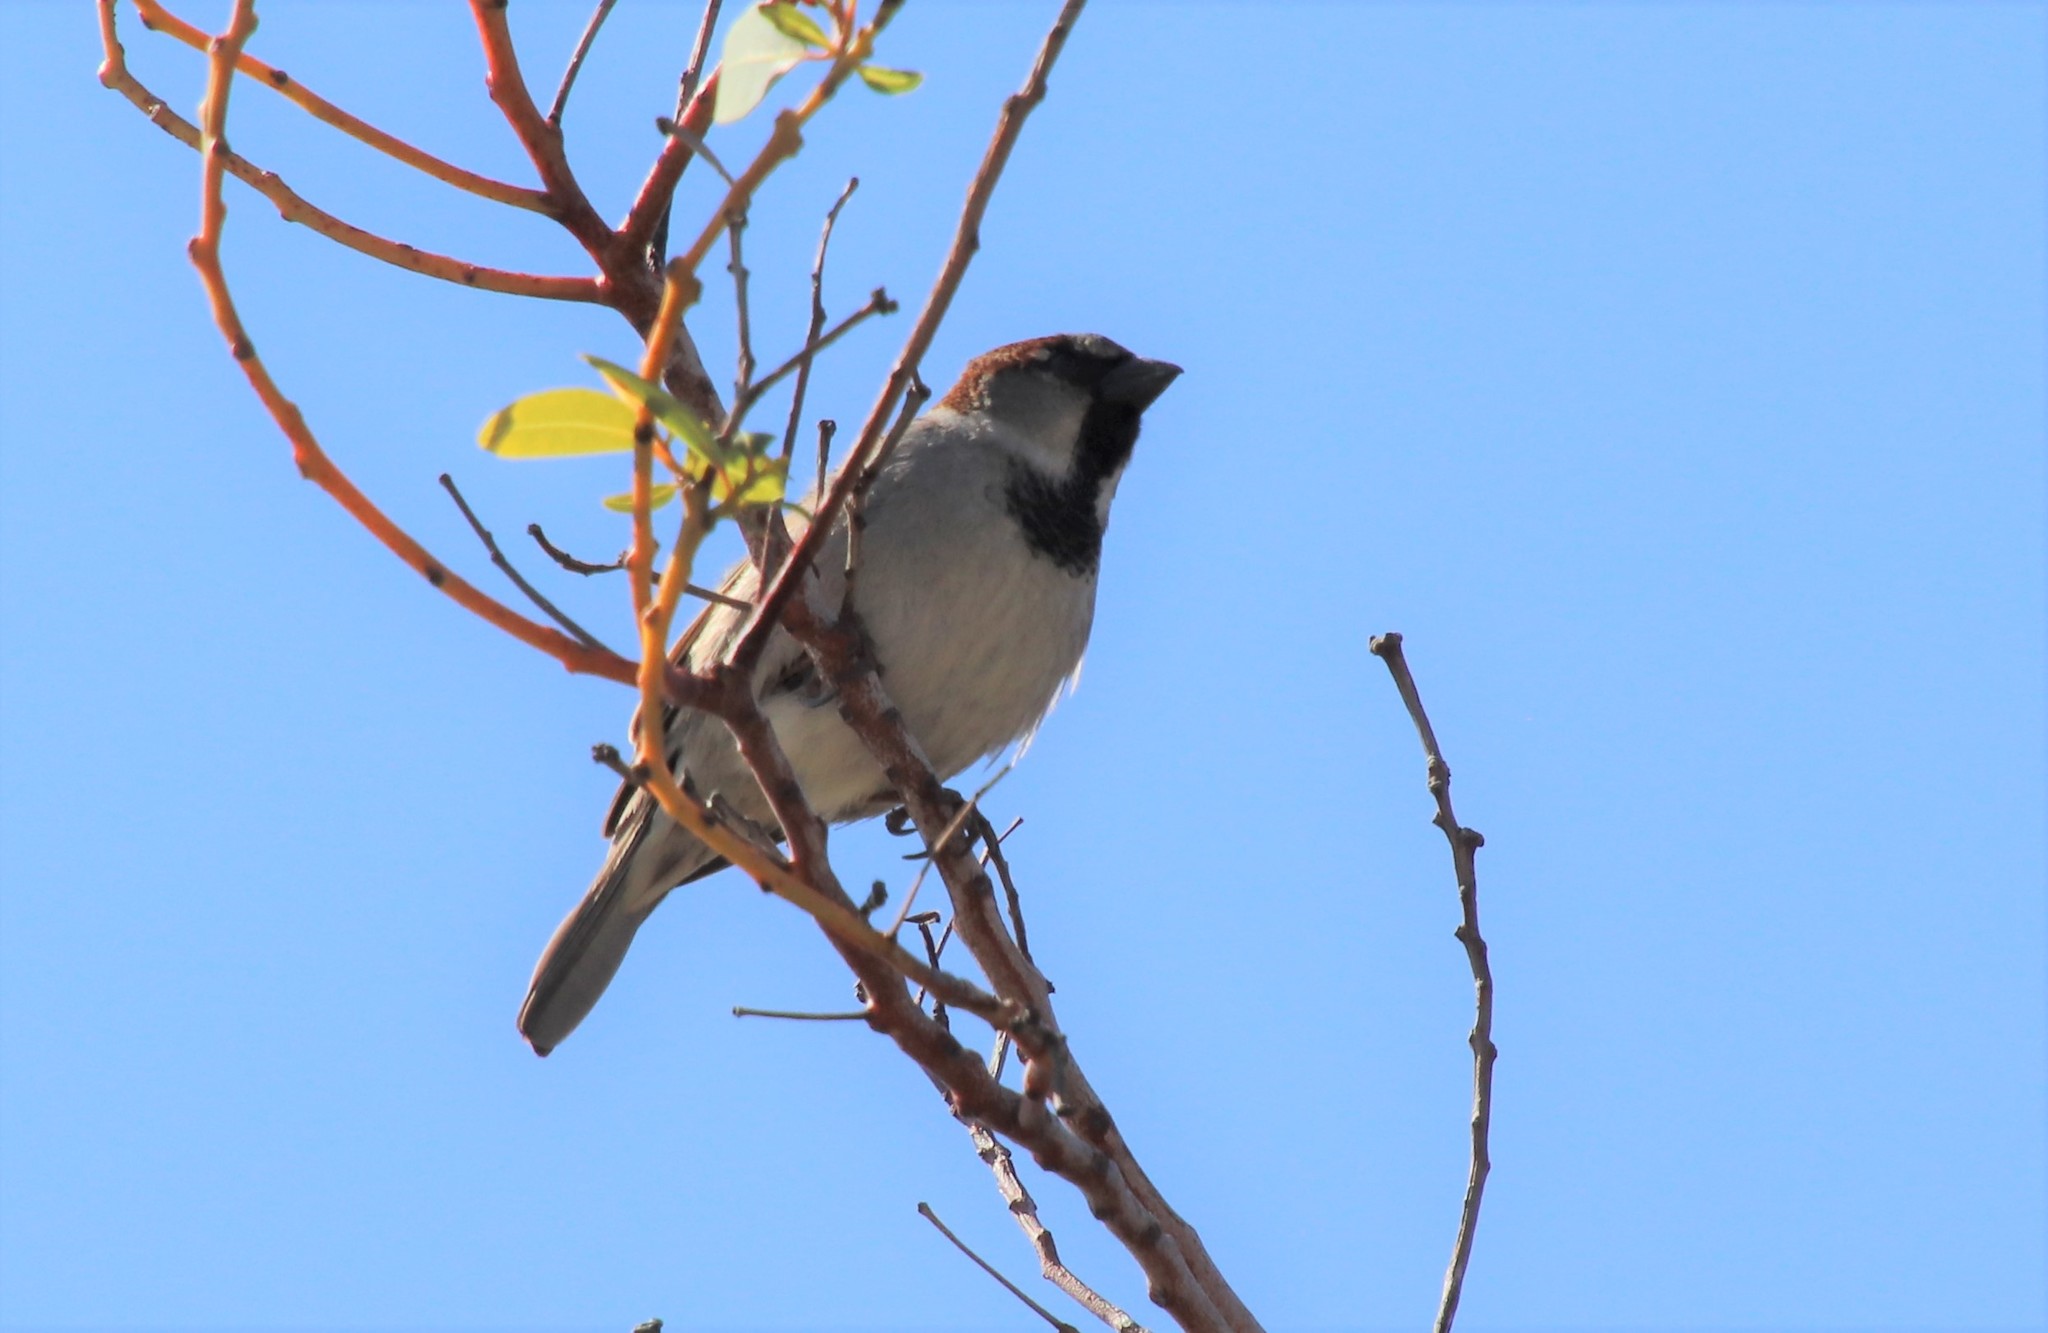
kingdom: Animalia
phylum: Chordata
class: Aves
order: Passeriformes
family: Passeridae
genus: Passer
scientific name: Passer domesticus
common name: House sparrow
